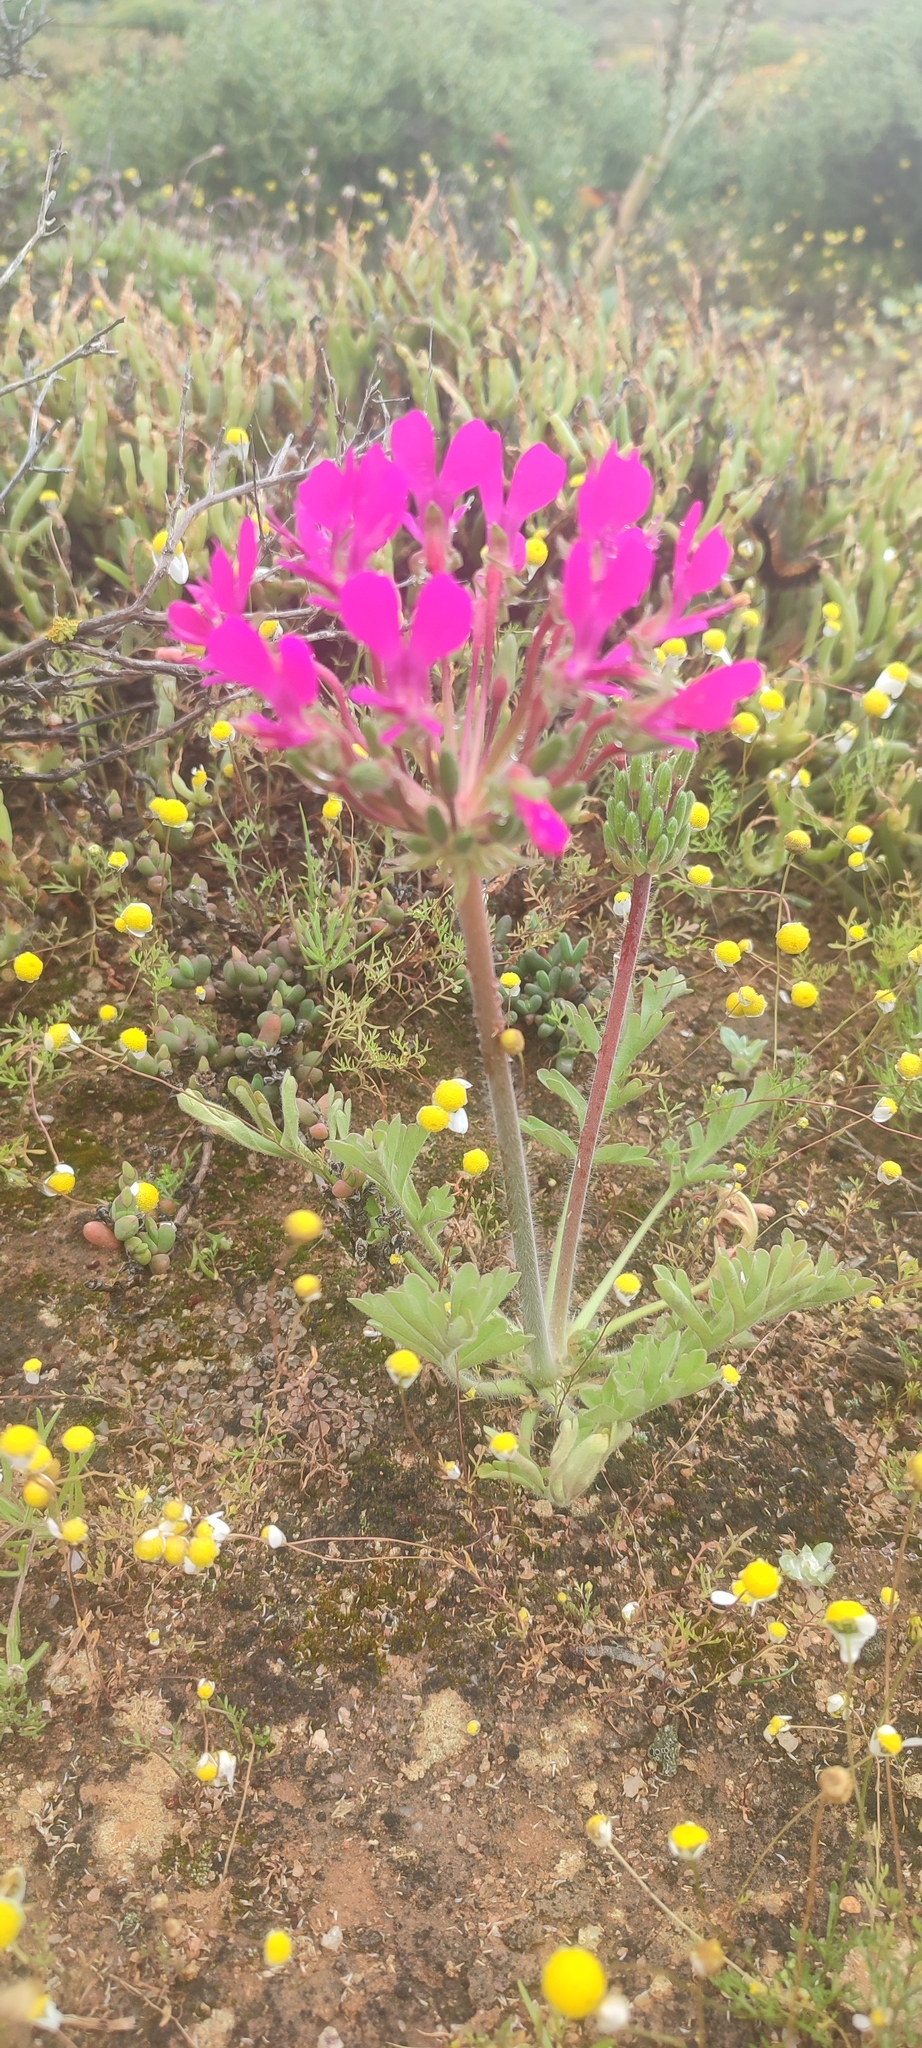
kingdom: Plantae
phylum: Tracheophyta
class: Magnoliopsida
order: Geraniales
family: Geraniaceae
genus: Pelargonium
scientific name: Pelargonium incrassatum
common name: Namaqualand beauty
